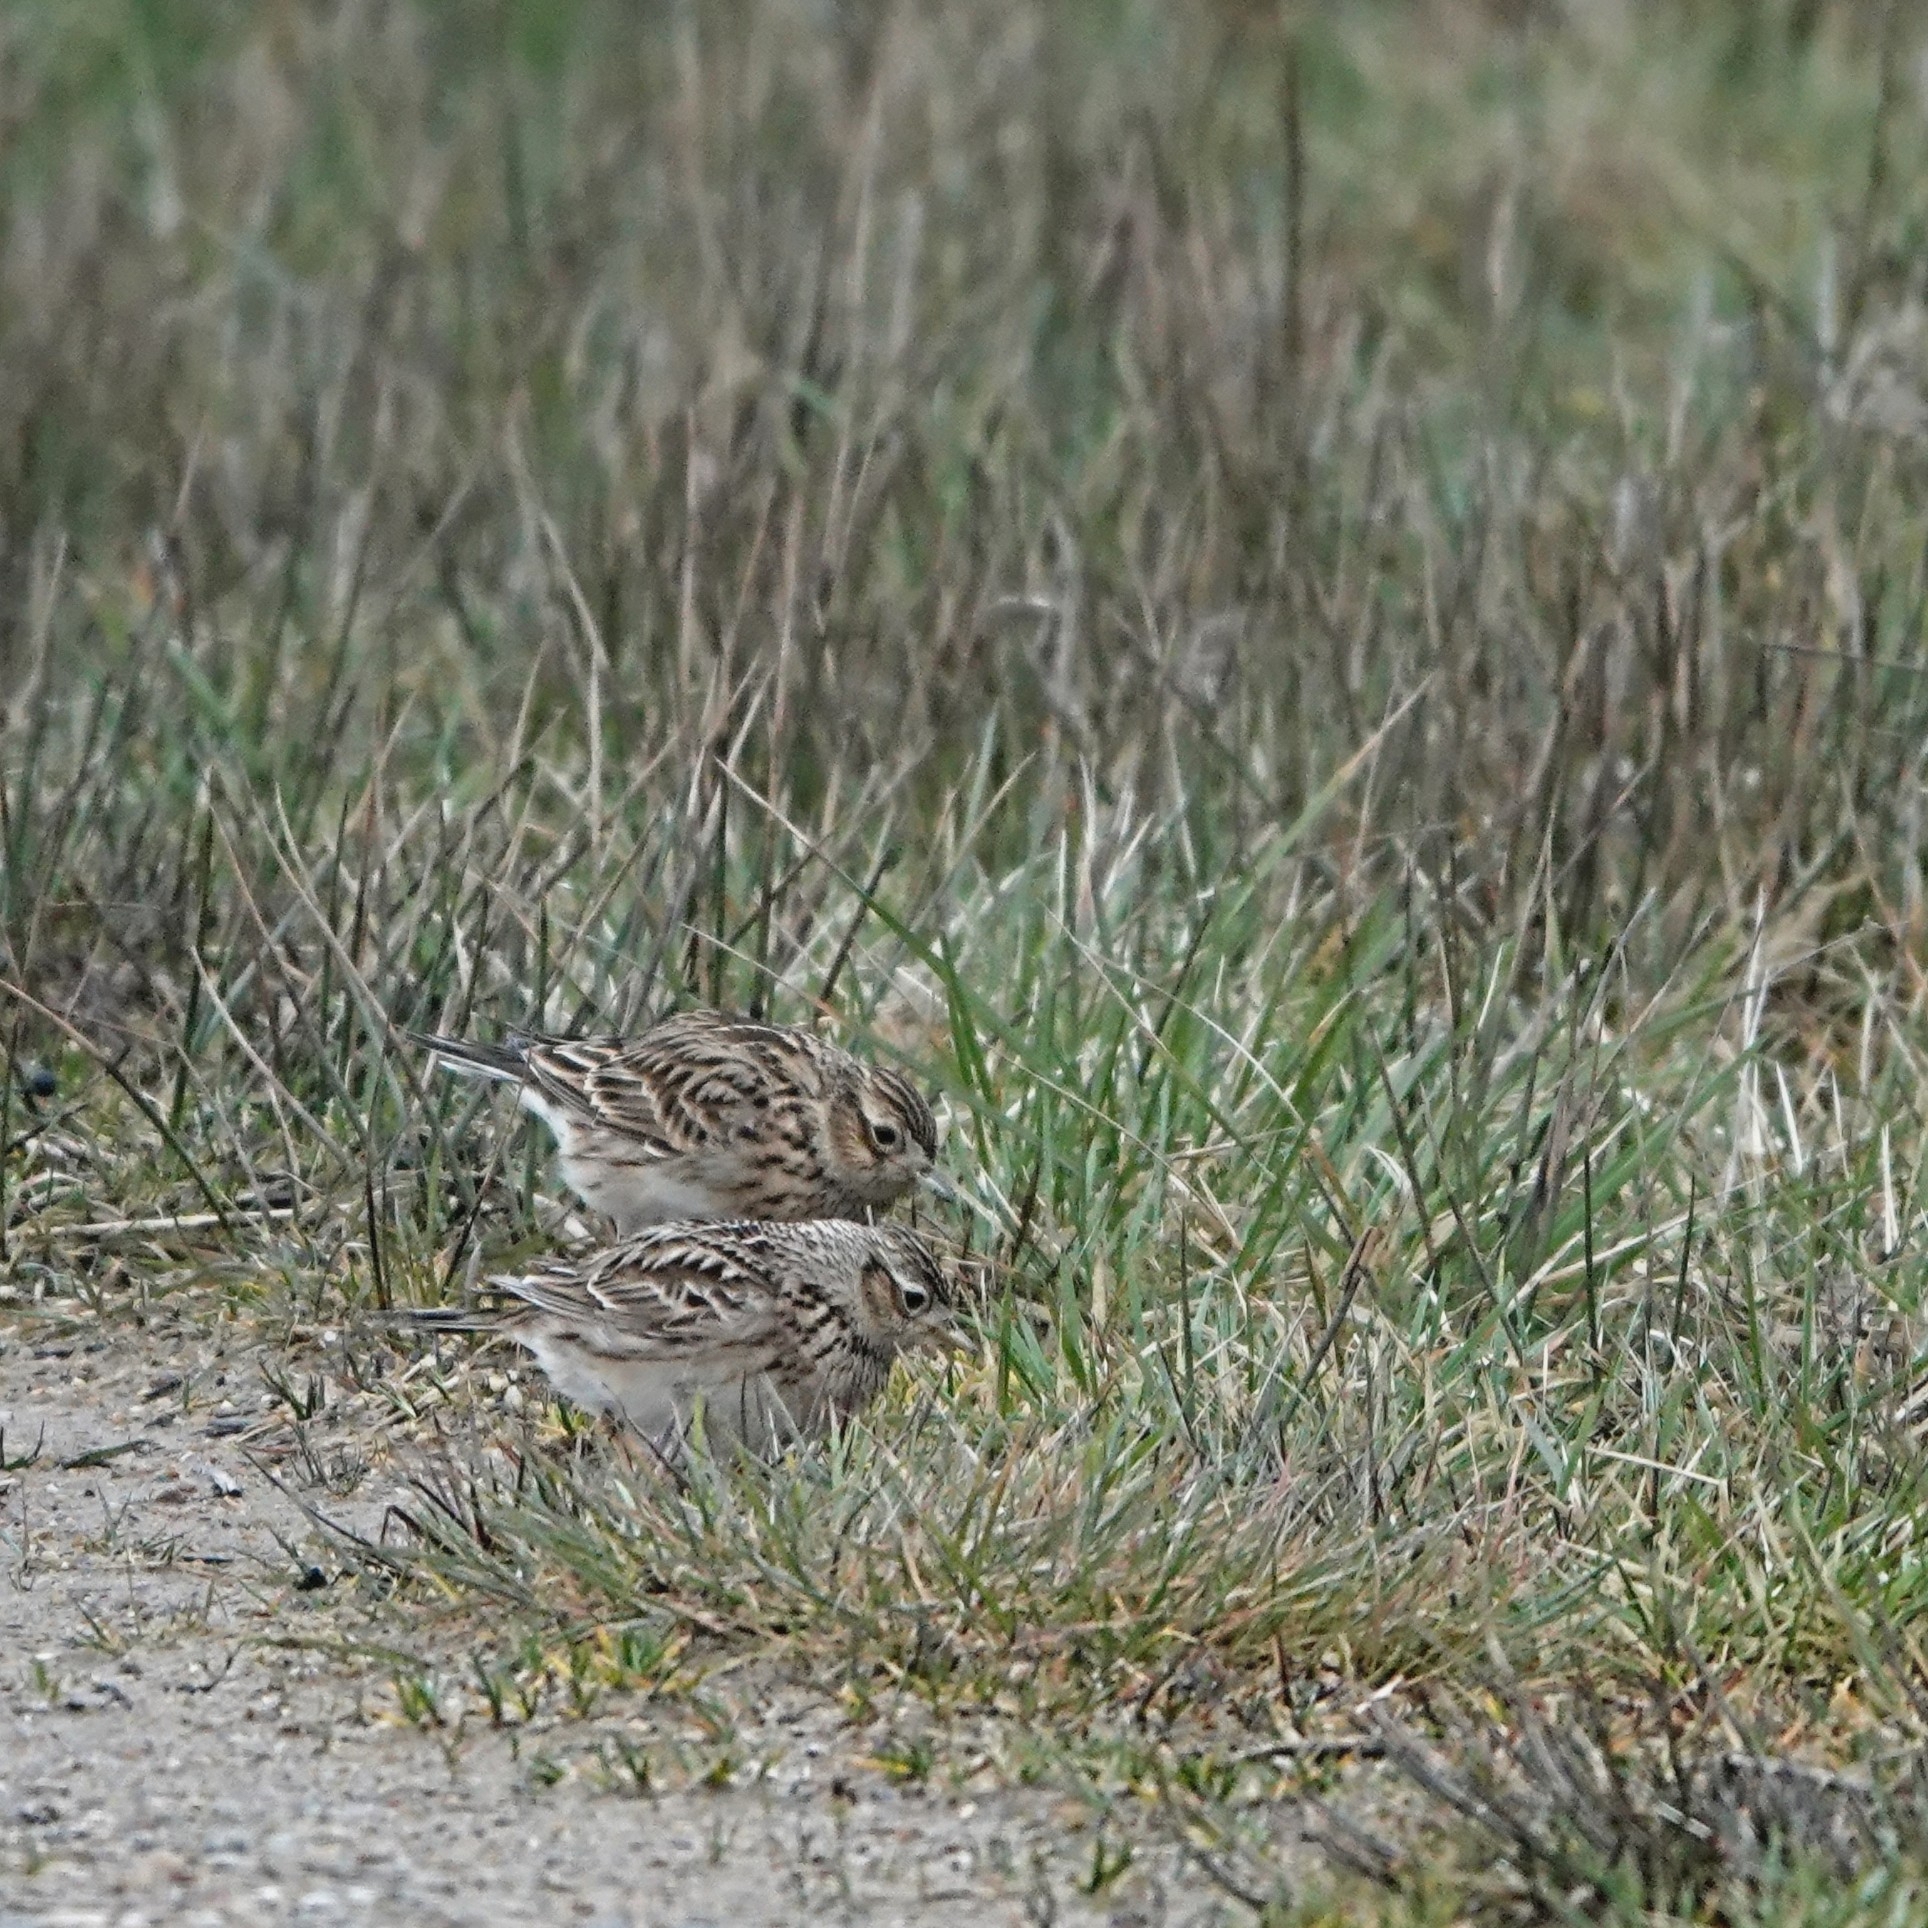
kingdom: Animalia
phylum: Chordata
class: Aves
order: Passeriformes
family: Alaudidae
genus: Alauda
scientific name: Alauda arvensis
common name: Eurasian skylark
